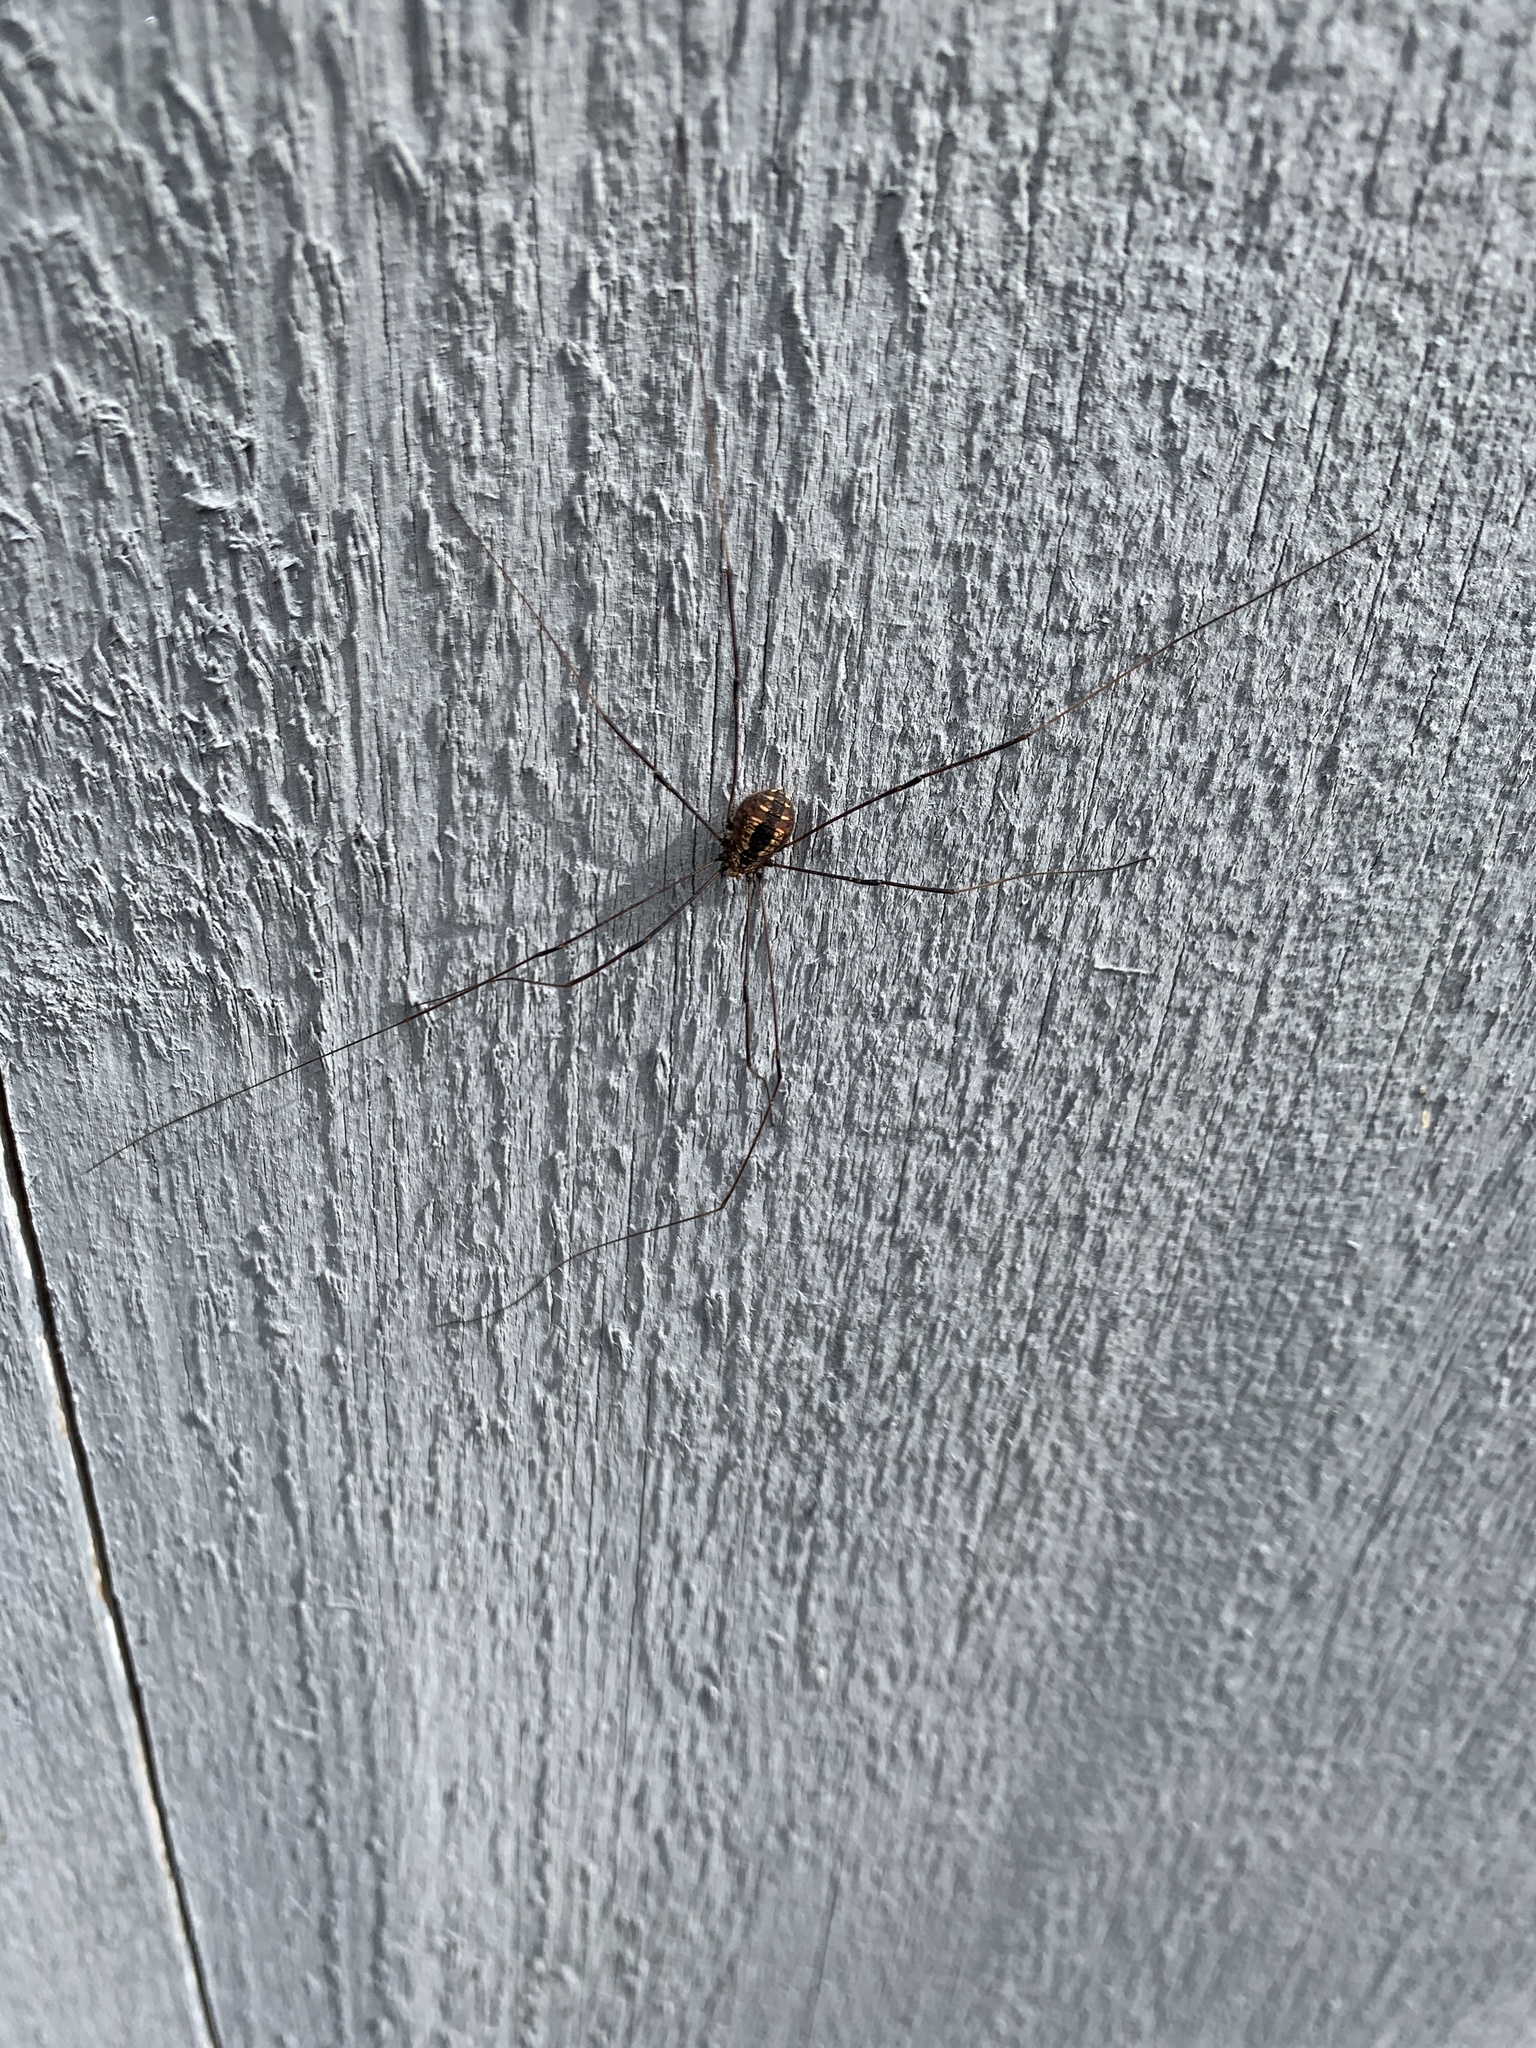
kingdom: Animalia
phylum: Arthropoda
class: Arachnida
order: Opiliones
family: Sclerosomatidae
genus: Leiobunum
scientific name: Leiobunum vittatum
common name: Eastern harvestman
